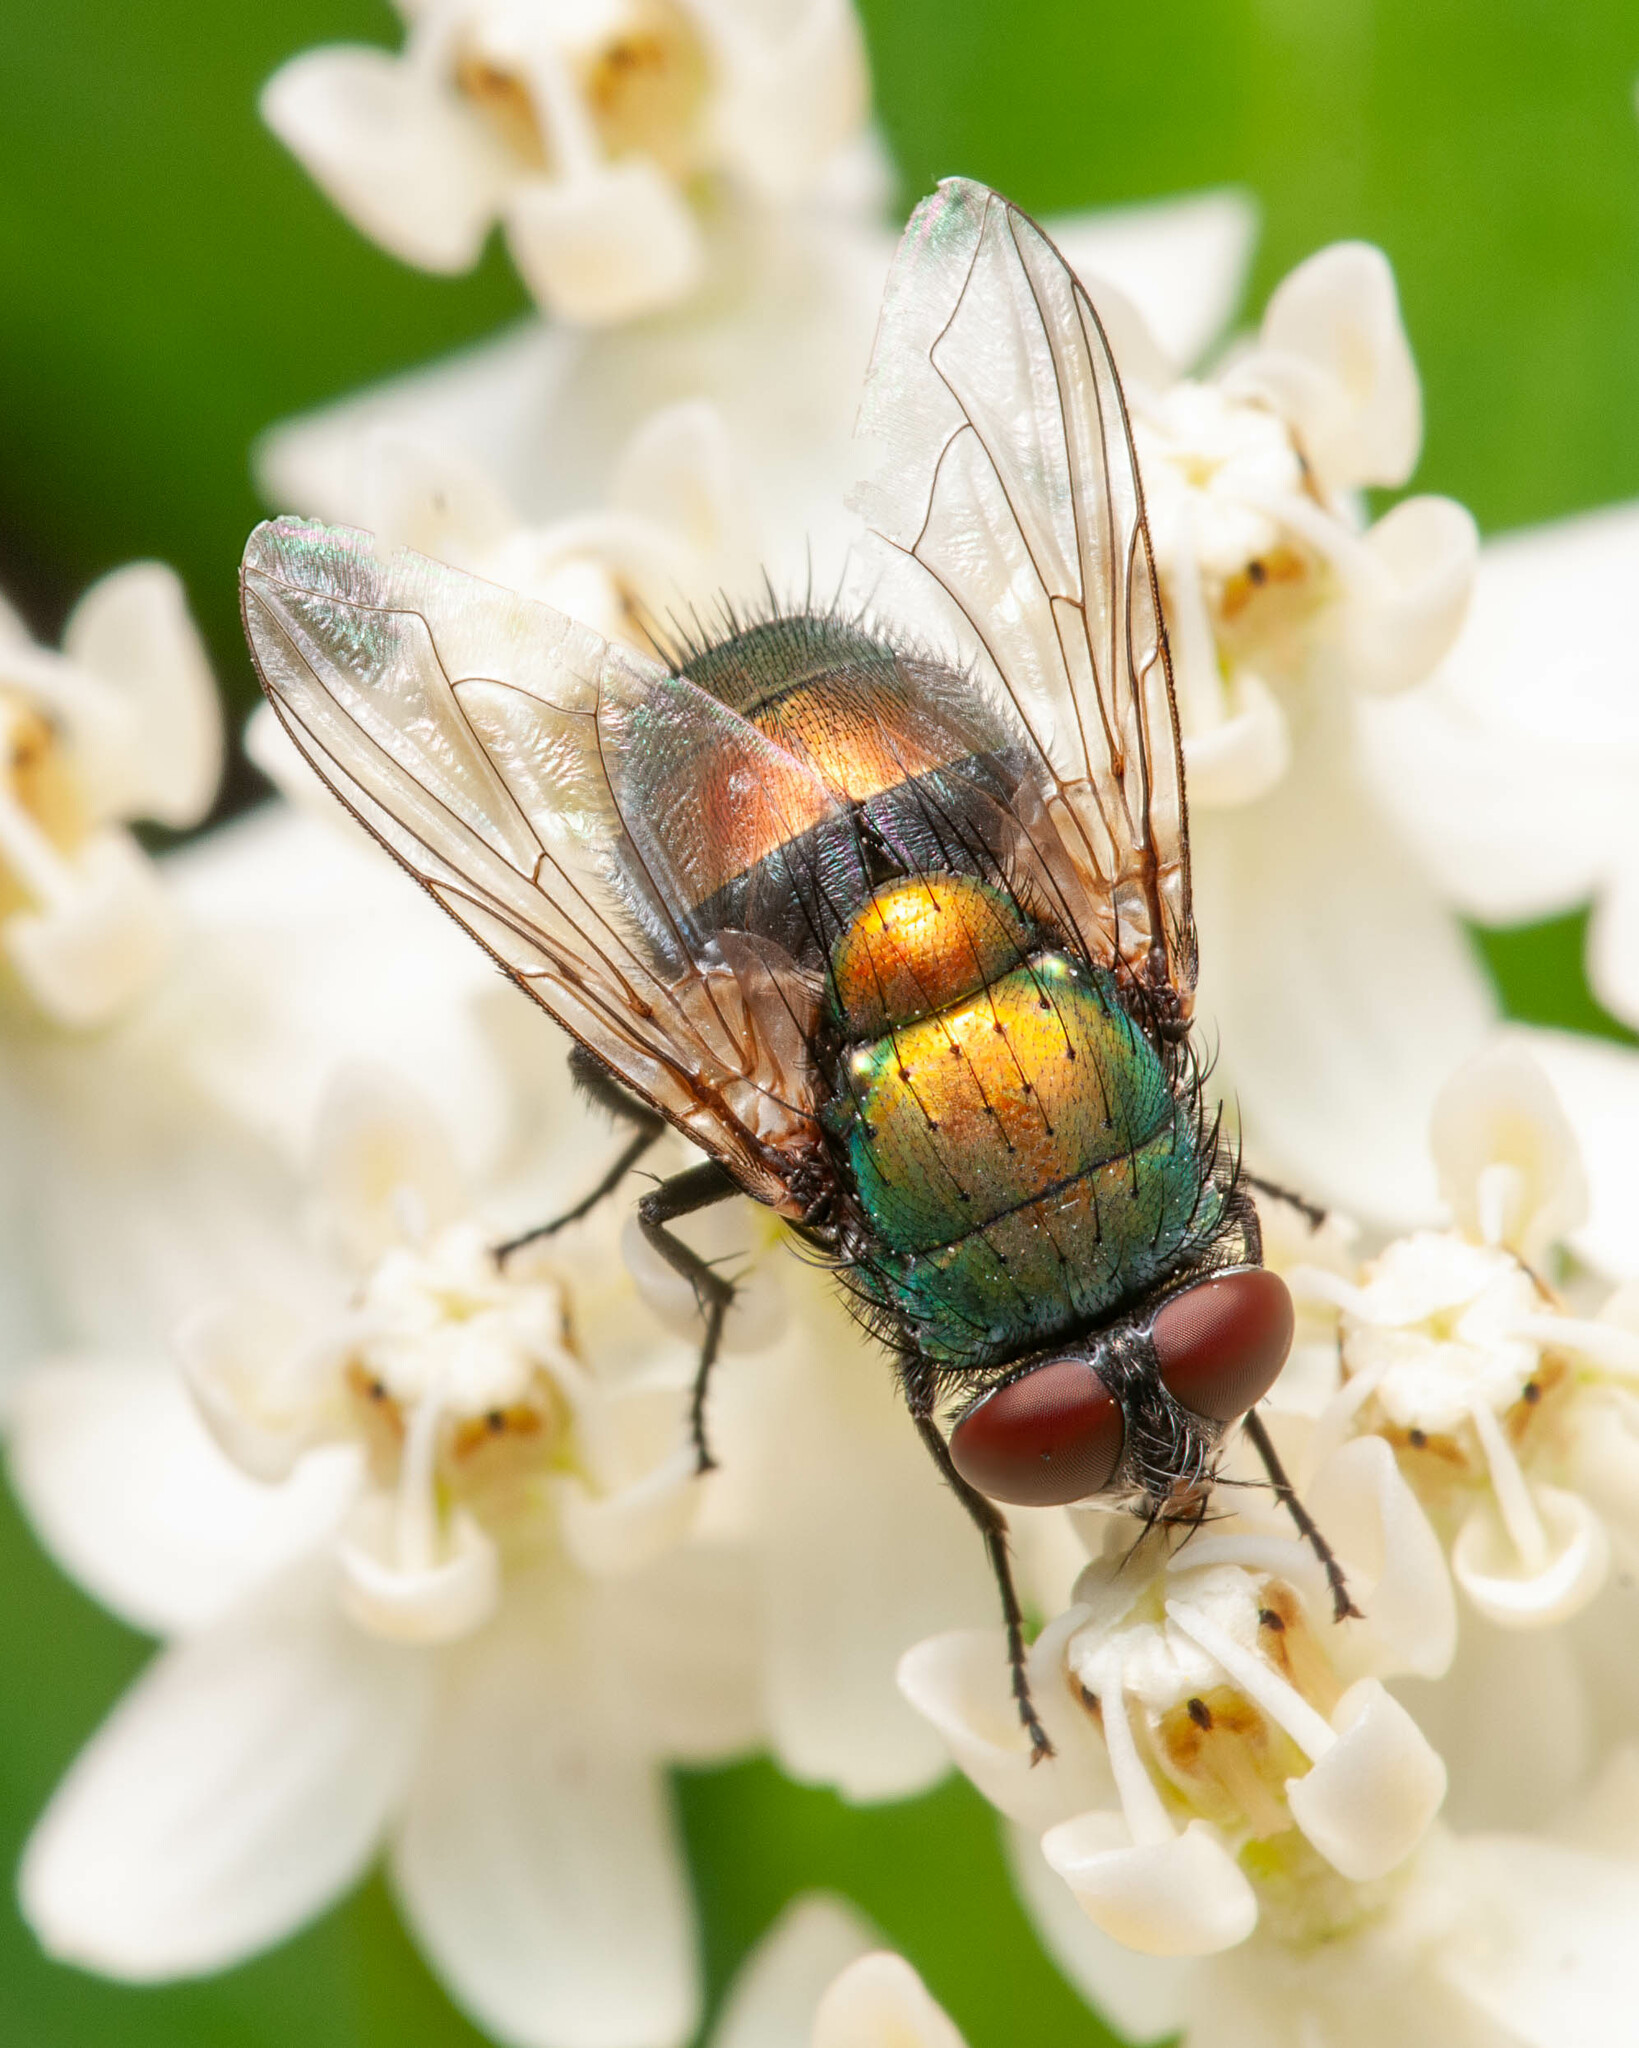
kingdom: Animalia
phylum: Arthropoda
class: Insecta
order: Diptera
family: Calliphoridae
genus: Lucilia
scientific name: Lucilia sericata
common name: Blow fly
